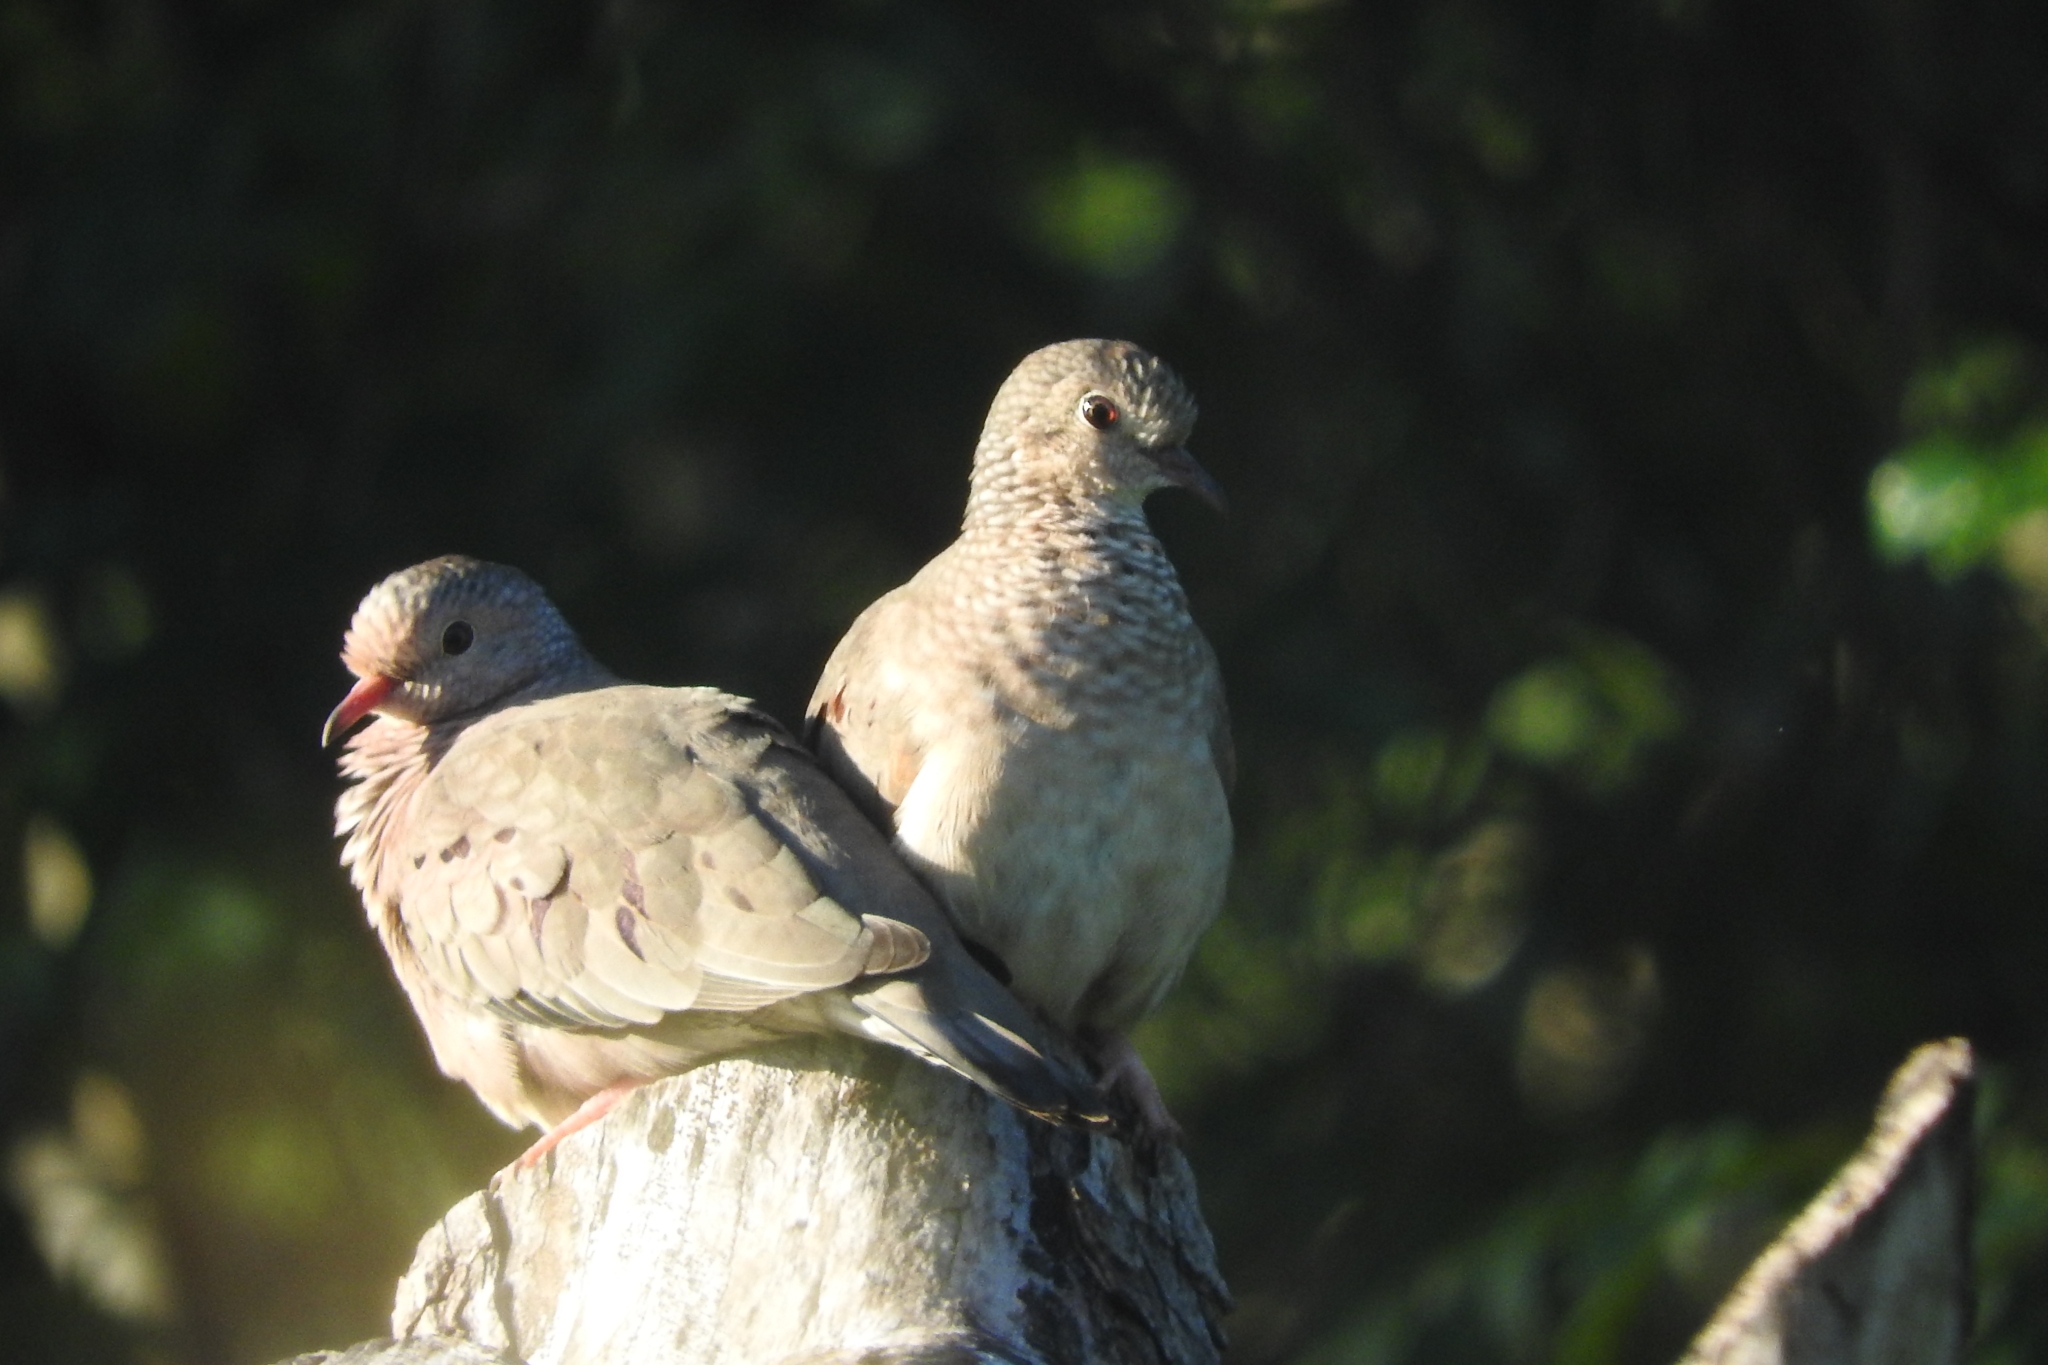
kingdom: Animalia
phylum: Chordata
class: Aves
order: Columbiformes
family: Columbidae
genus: Columbina
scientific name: Columbina passerina
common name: Common ground-dove
